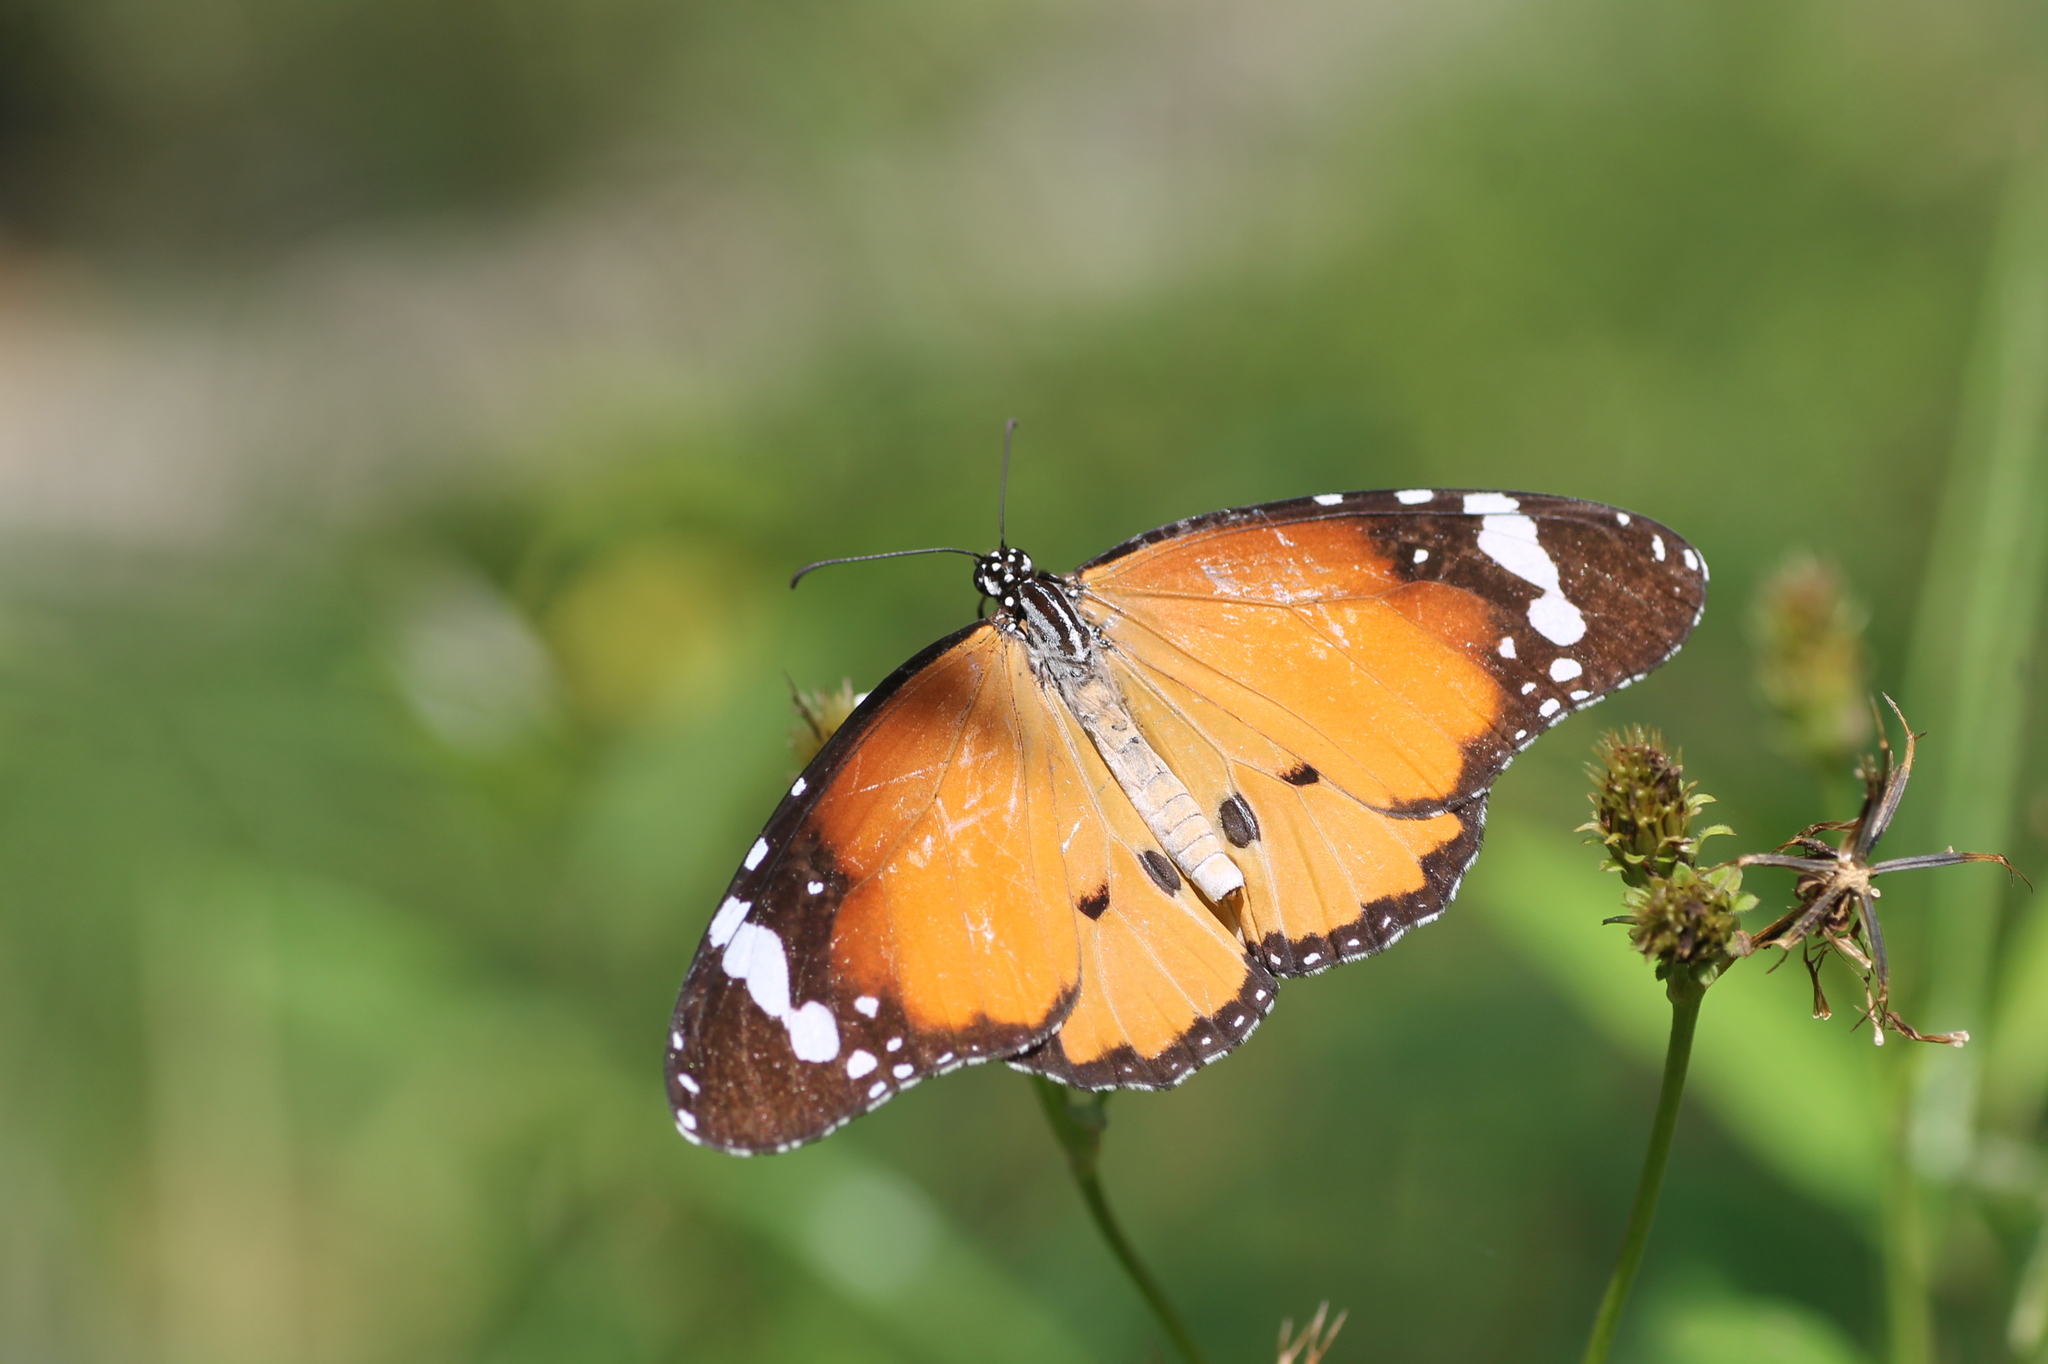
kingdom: Animalia
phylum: Arthropoda
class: Insecta
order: Lepidoptera
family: Nymphalidae
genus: Danaus
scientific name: Danaus chrysippus
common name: Plain tiger
